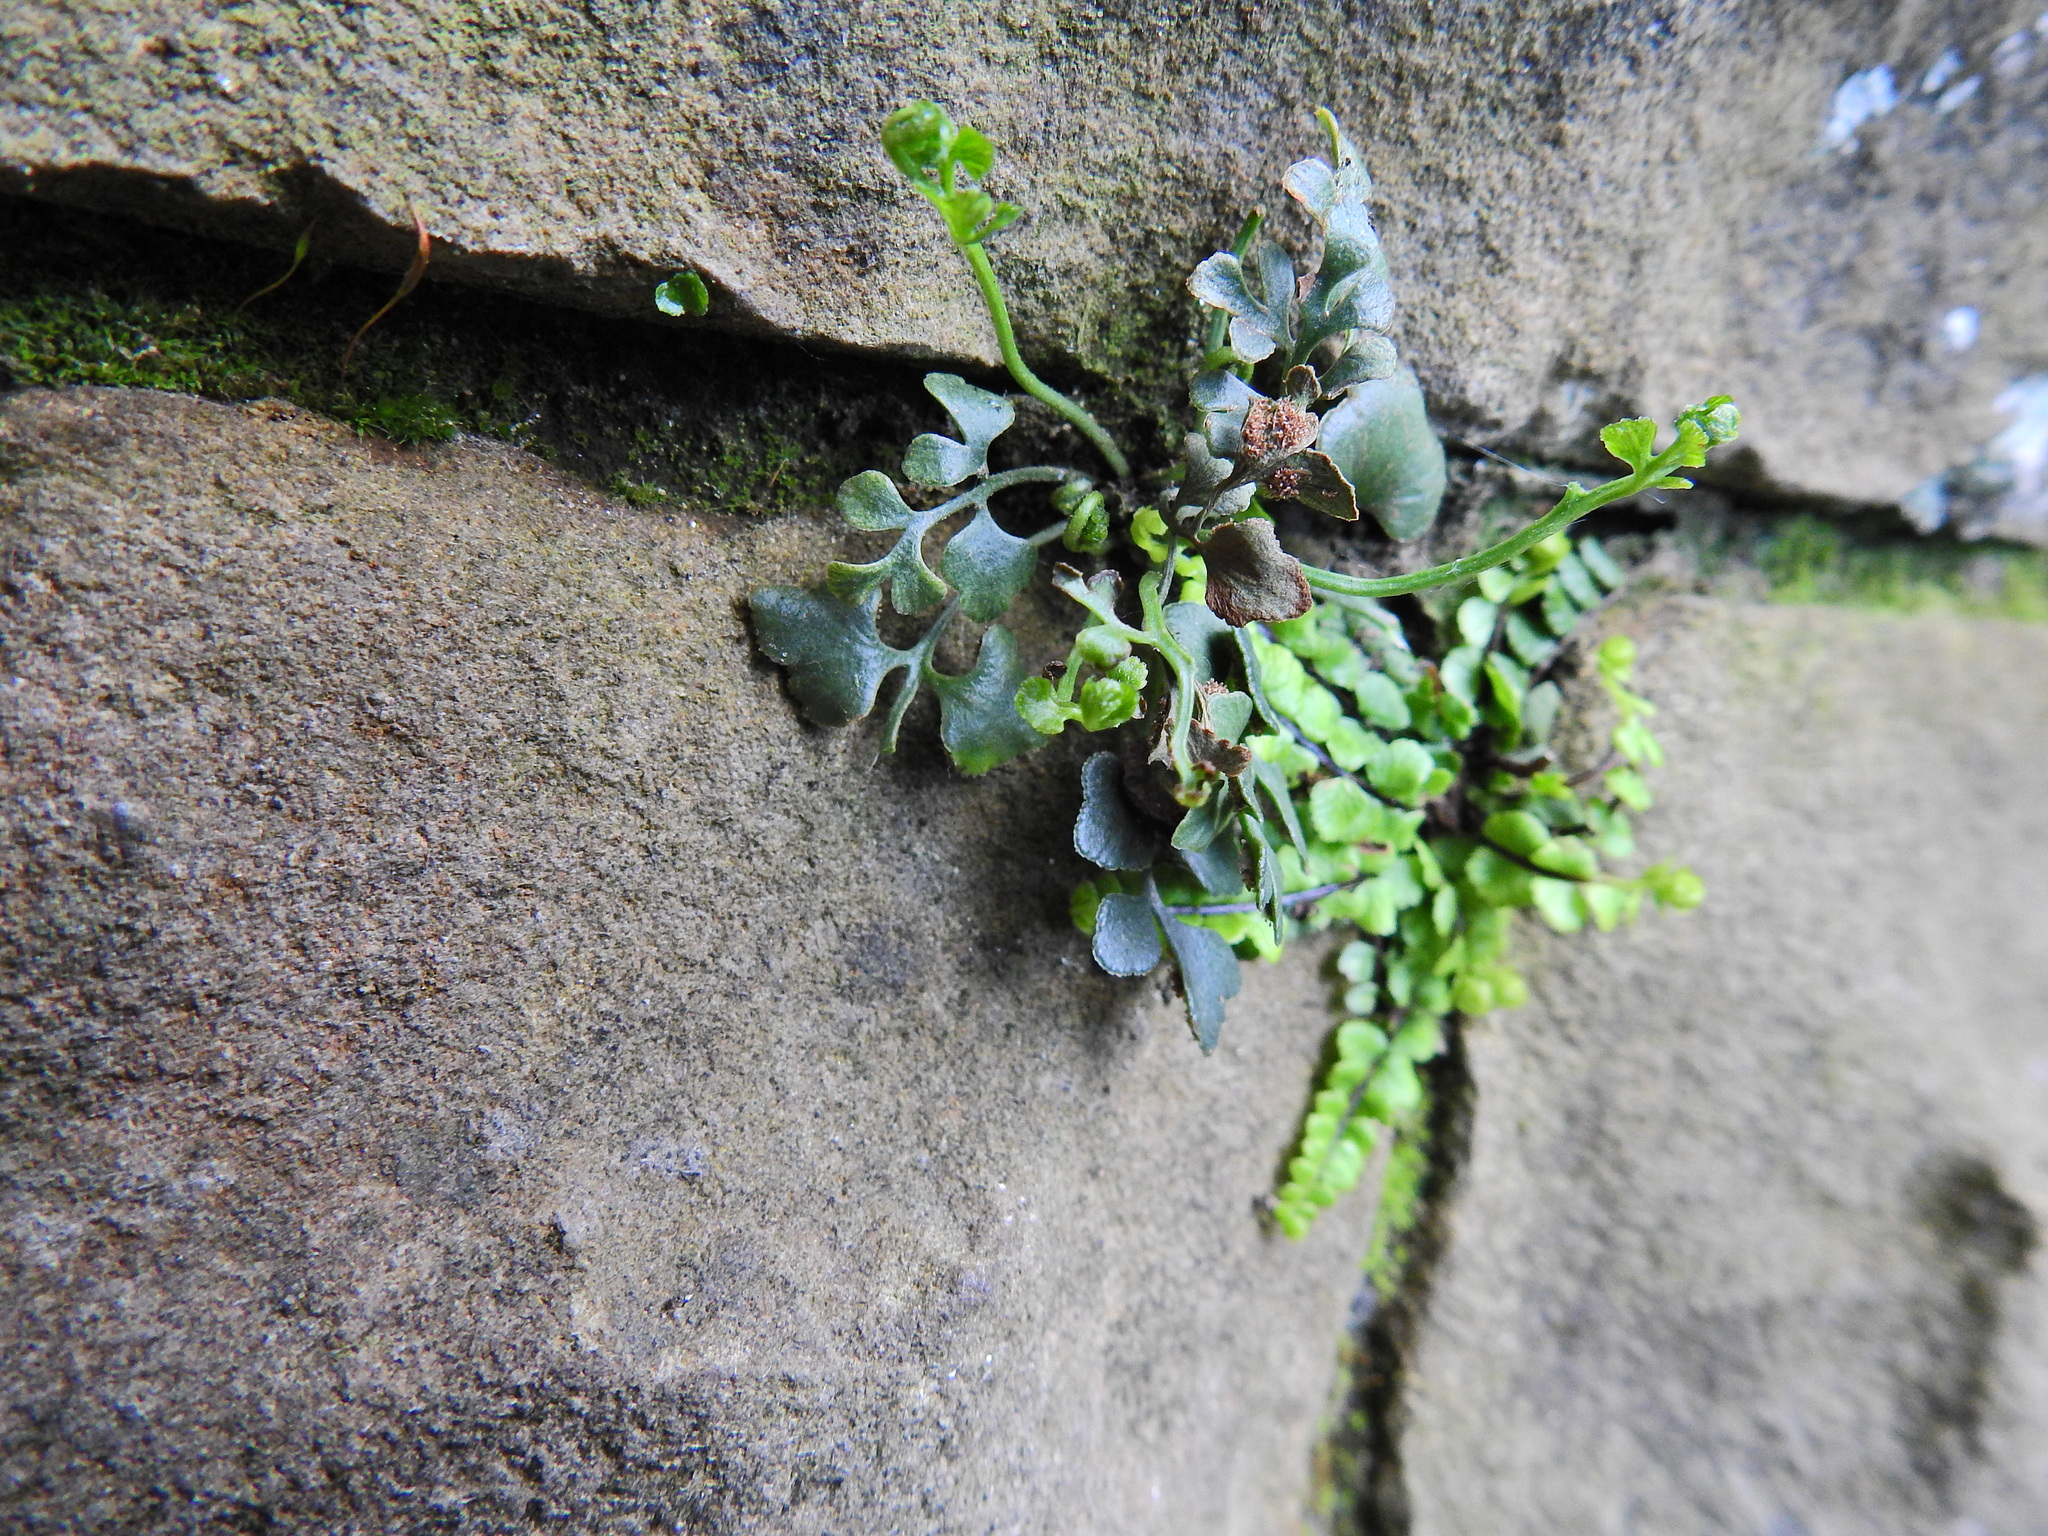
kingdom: Plantae
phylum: Tracheophyta
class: Polypodiopsida
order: Polypodiales
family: Aspleniaceae
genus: Asplenium
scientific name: Asplenium ruta-muraria
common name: Wall-rue
